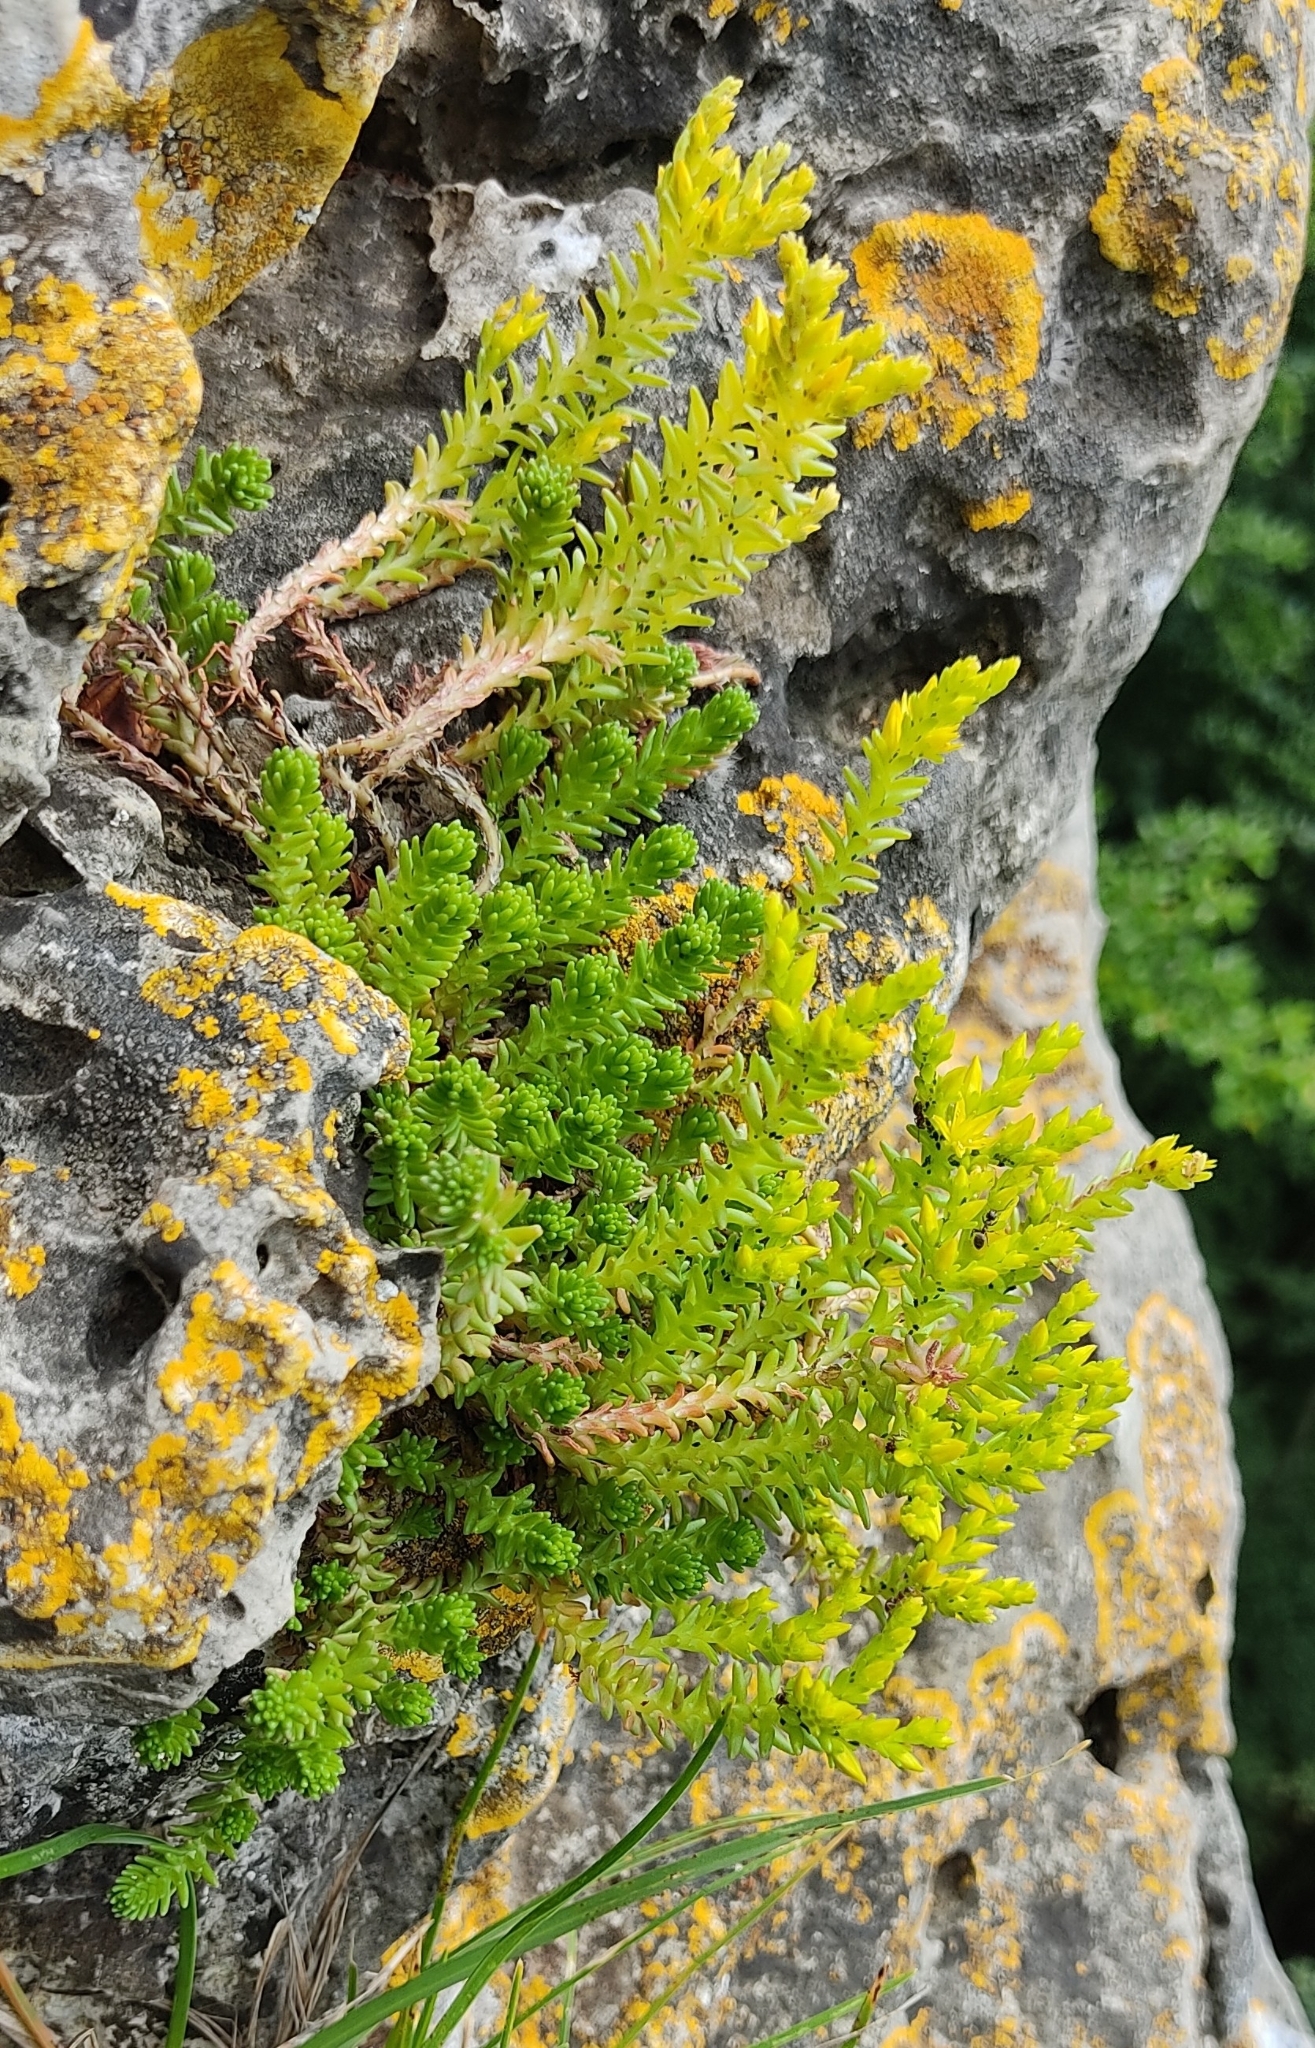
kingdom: Plantae
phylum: Tracheophyta
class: Magnoliopsida
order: Saxifragales
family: Crassulaceae
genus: Sedum
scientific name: Sedum sexangulare
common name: Tasteless stonecrop
